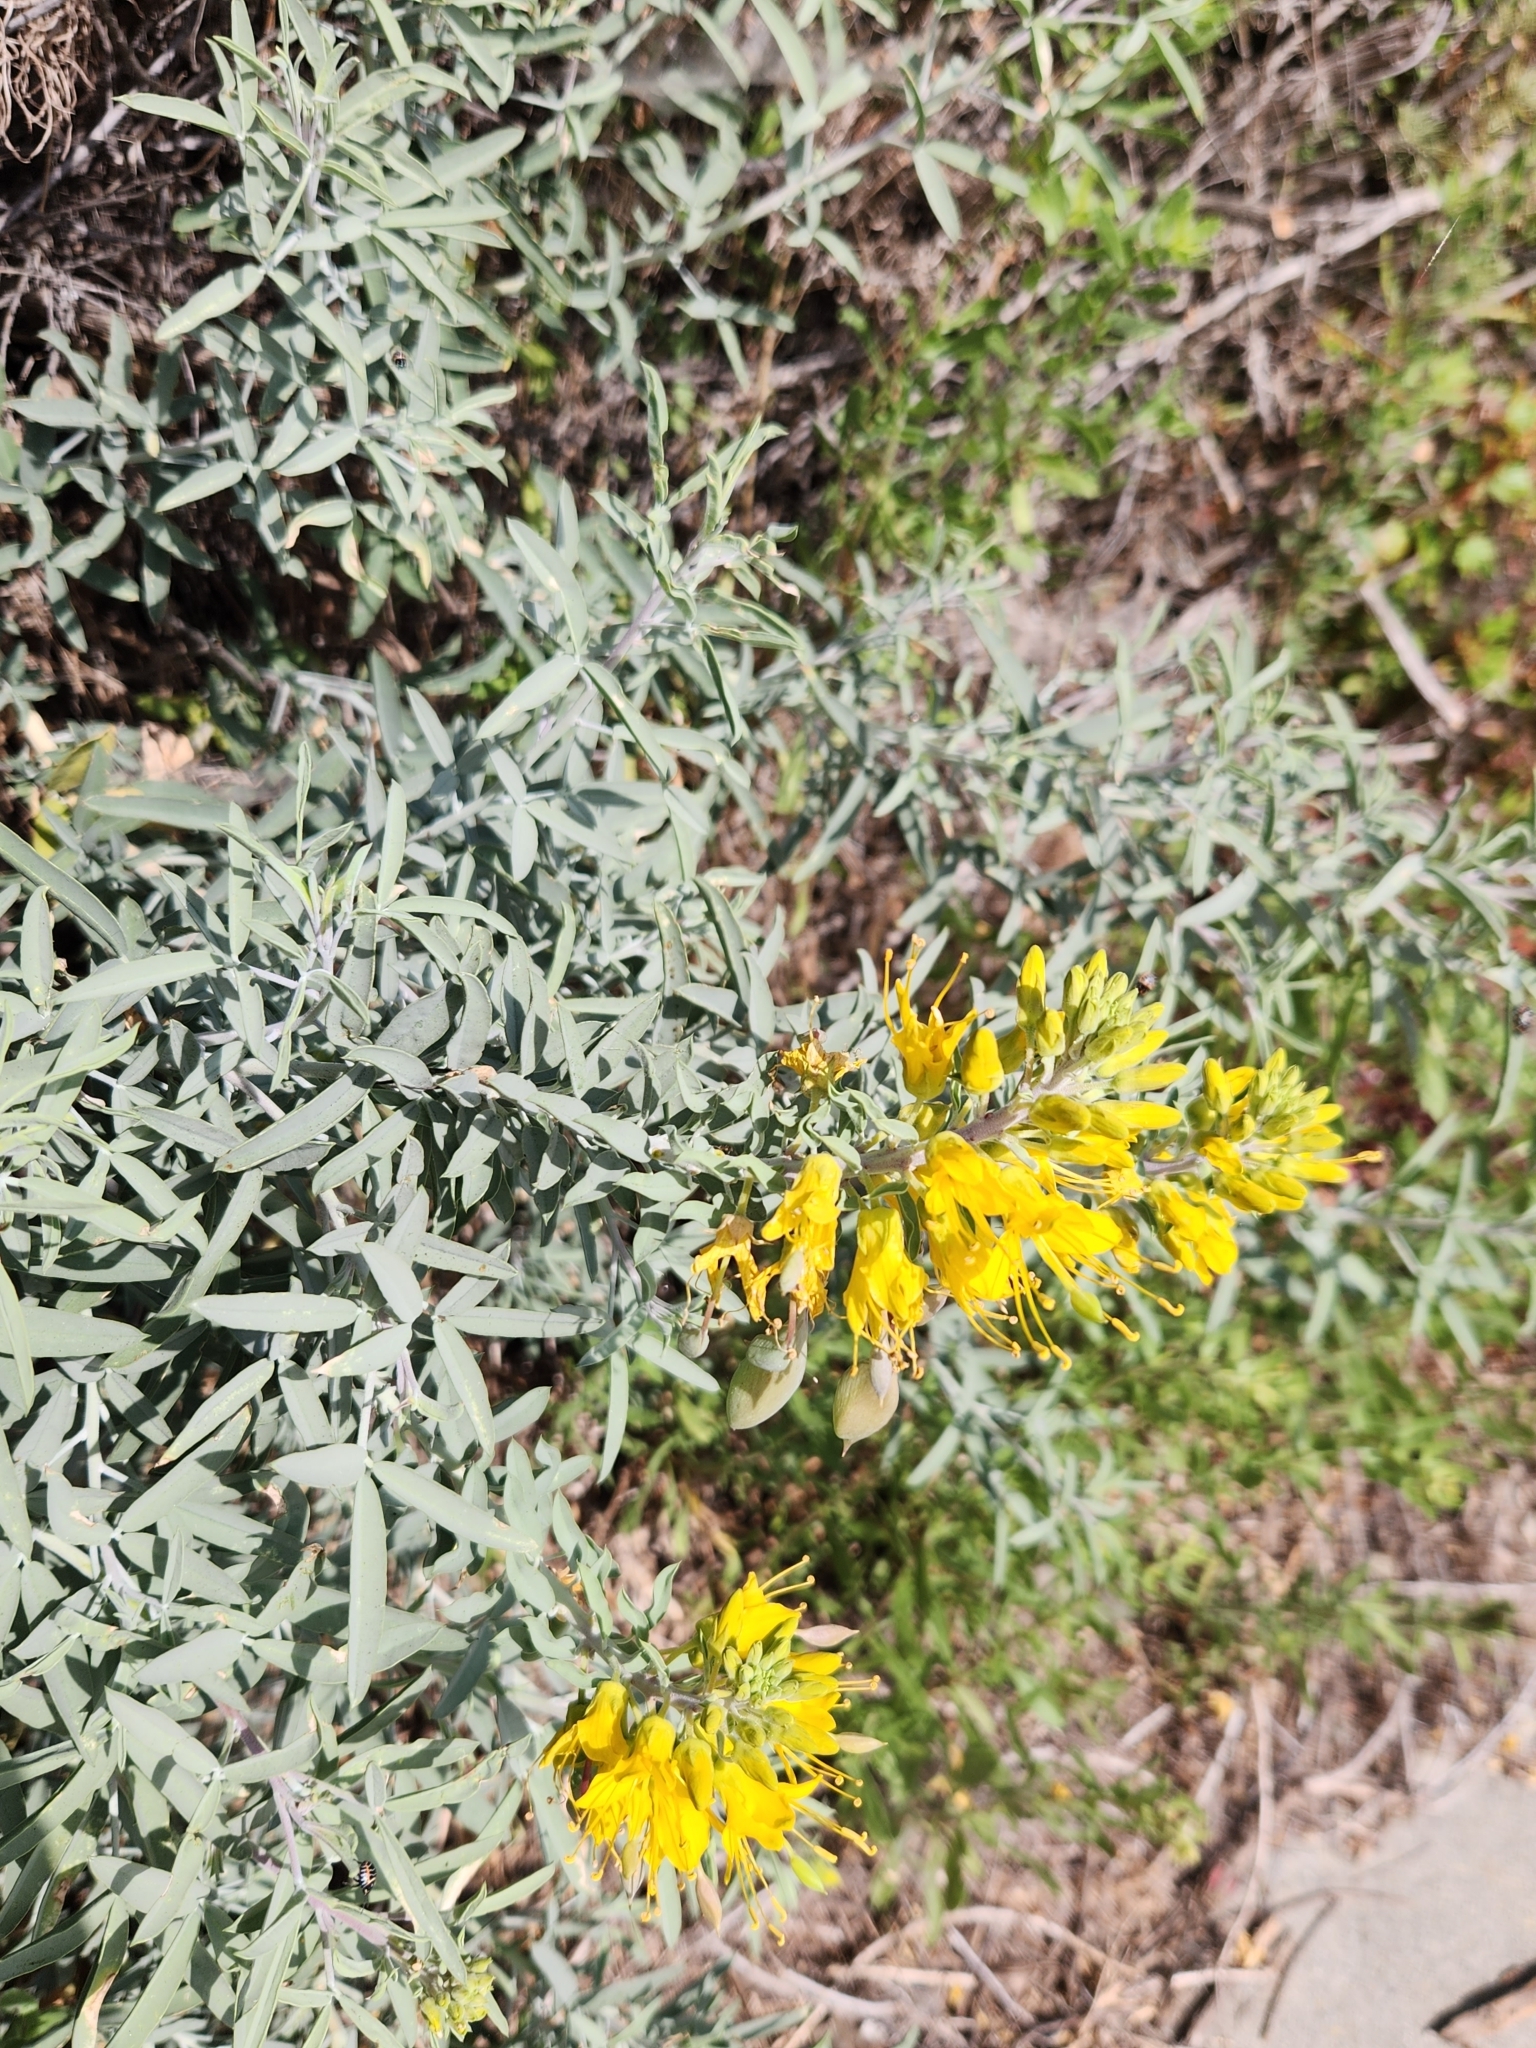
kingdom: Plantae
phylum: Tracheophyta
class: Magnoliopsida
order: Brassicales
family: Cleomaceae
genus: Cleomella
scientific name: Cleomella arborea
